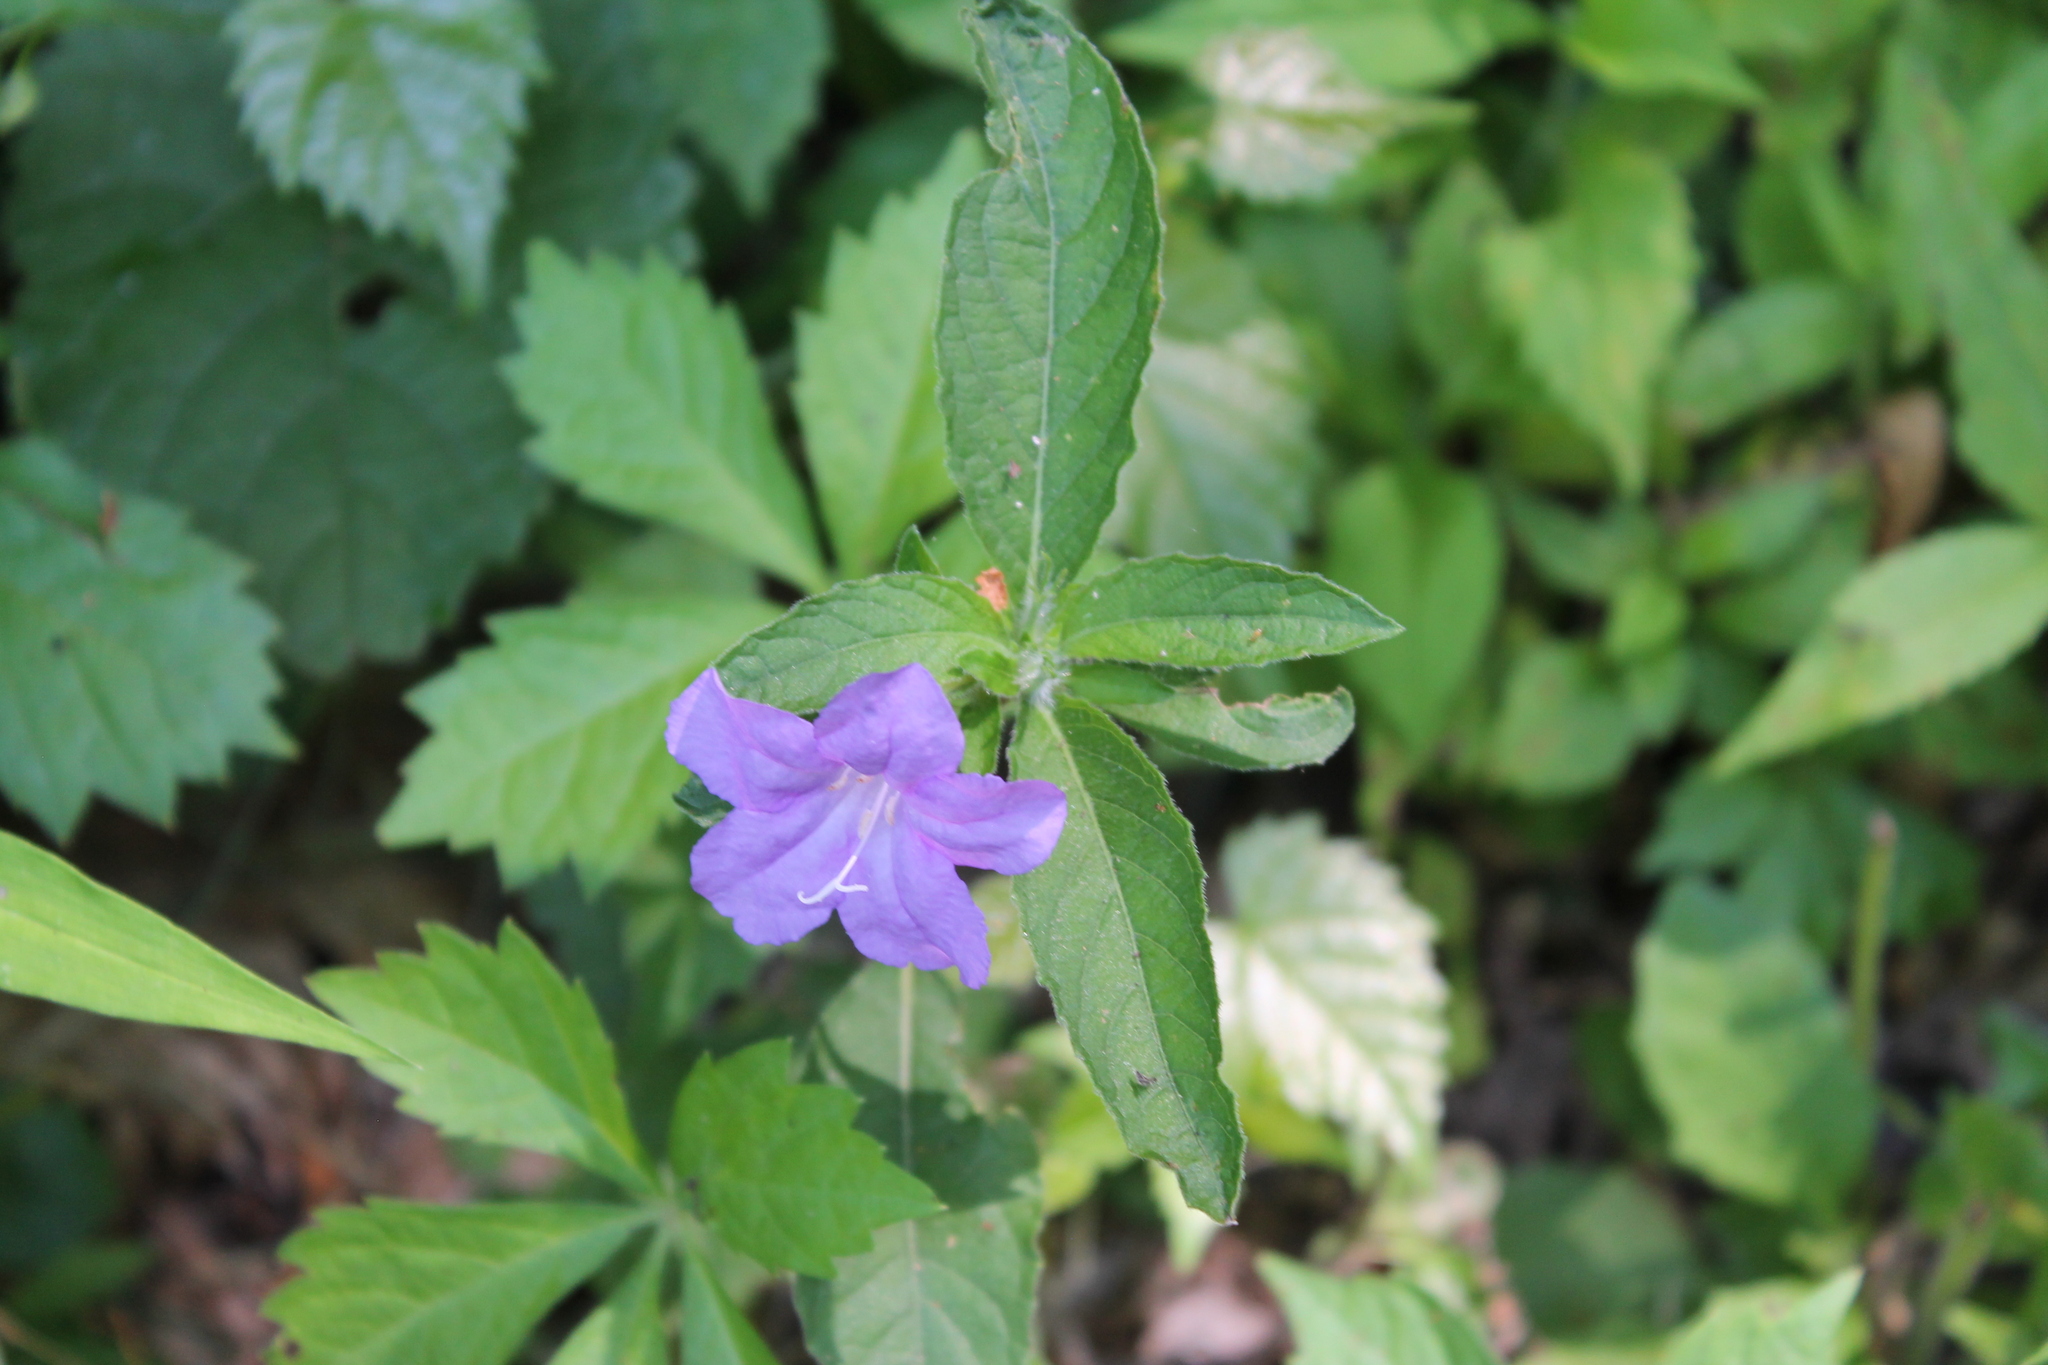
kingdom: Plantae
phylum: Tracheophyta
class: Magnoliopsida
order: Lamiales
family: Acanthaceae
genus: Ruellia
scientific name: Ruellia caroliniensis
